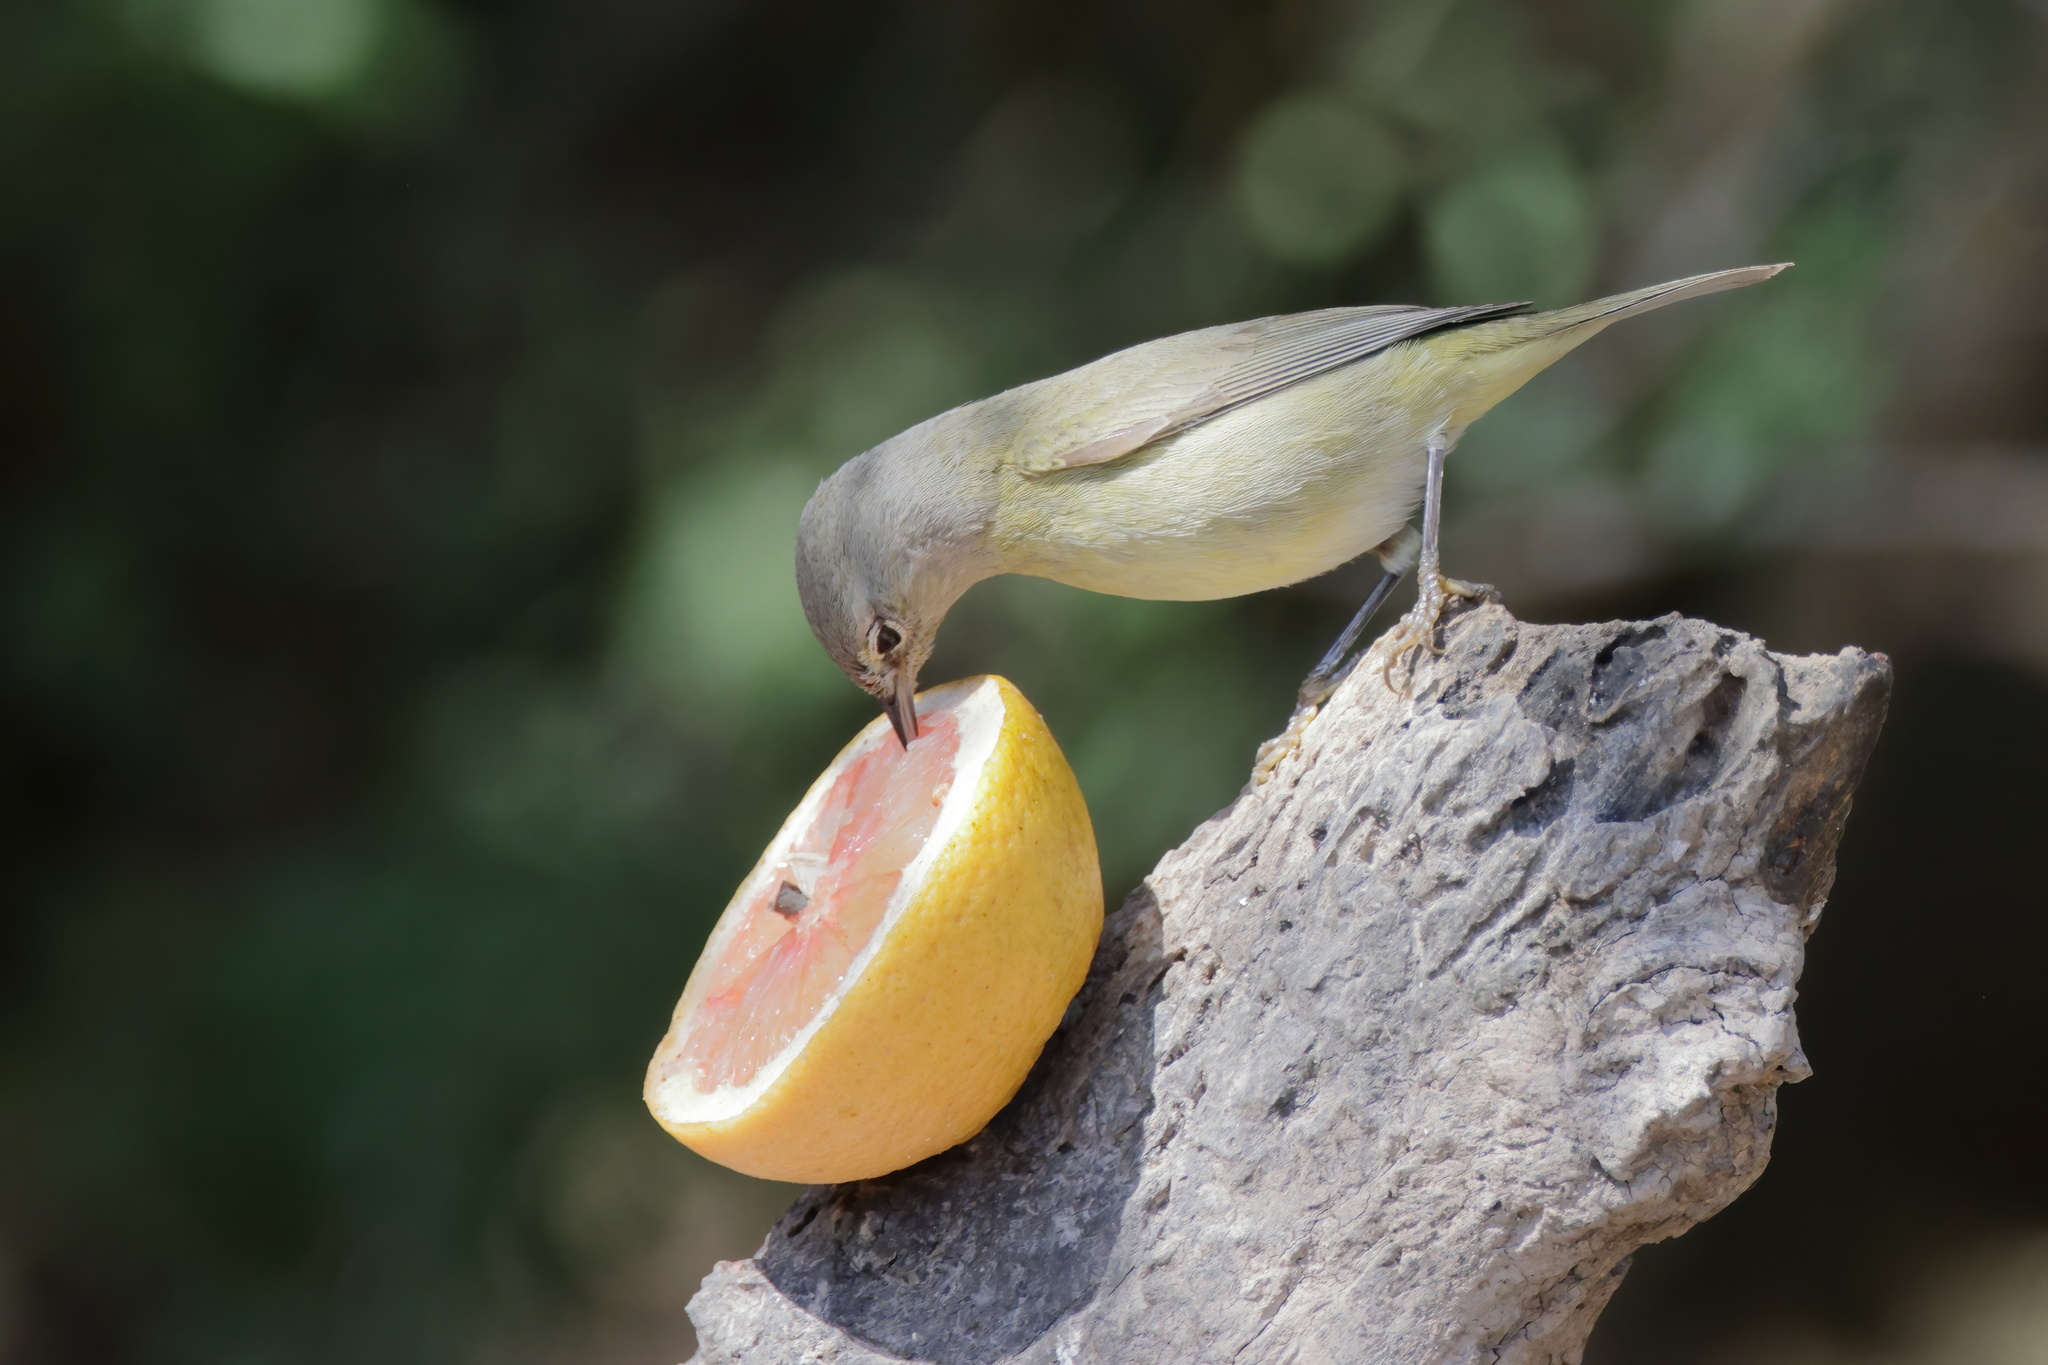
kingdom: Animalia
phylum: Chordata
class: Aves
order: Passeriformes
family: Parulidae
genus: Leiothlypis
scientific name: Leiothlypis celata
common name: Orange-crowned warbler
